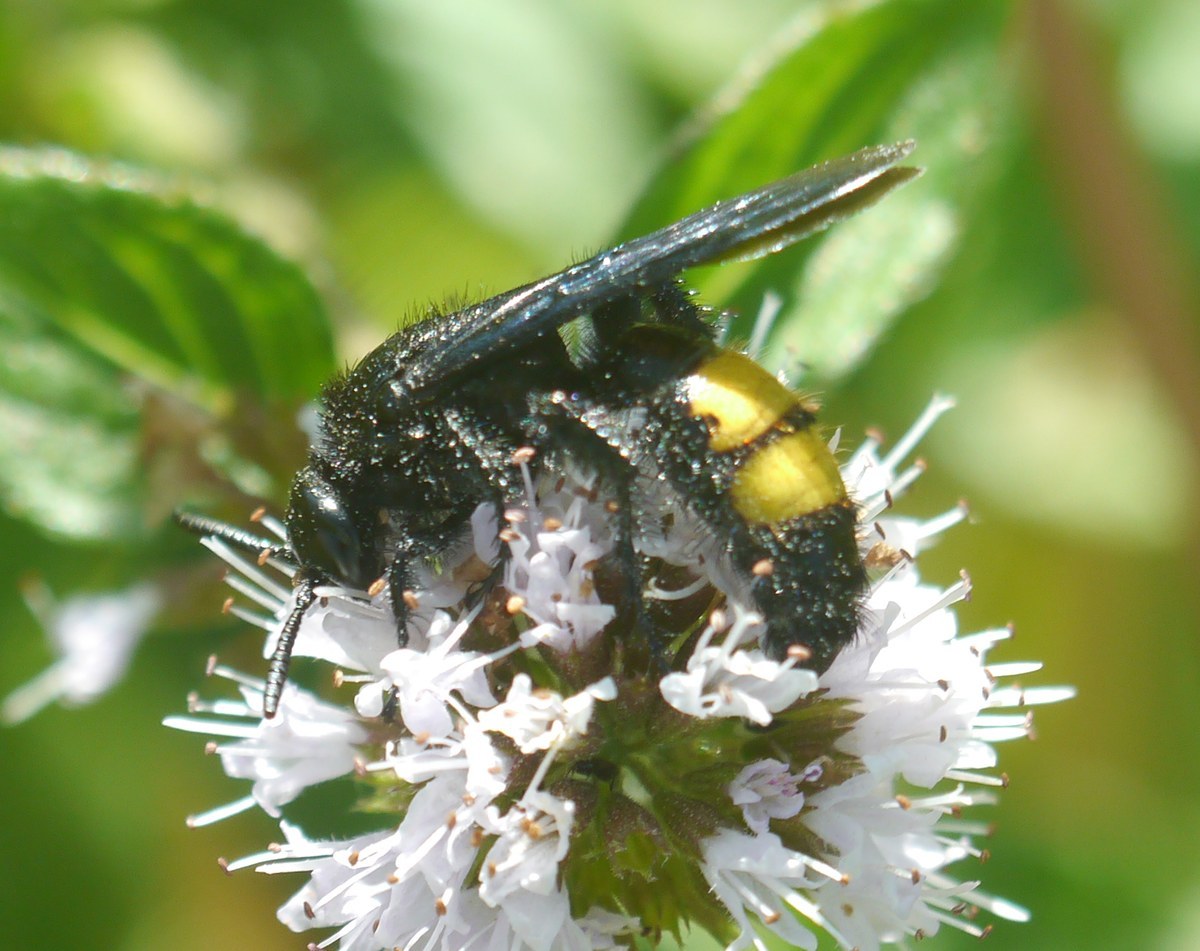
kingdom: Animalia
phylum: Arthropoda
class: Insecta
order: Hymenoptera
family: Scoliidae
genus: Scolia
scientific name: Scolia hirta
